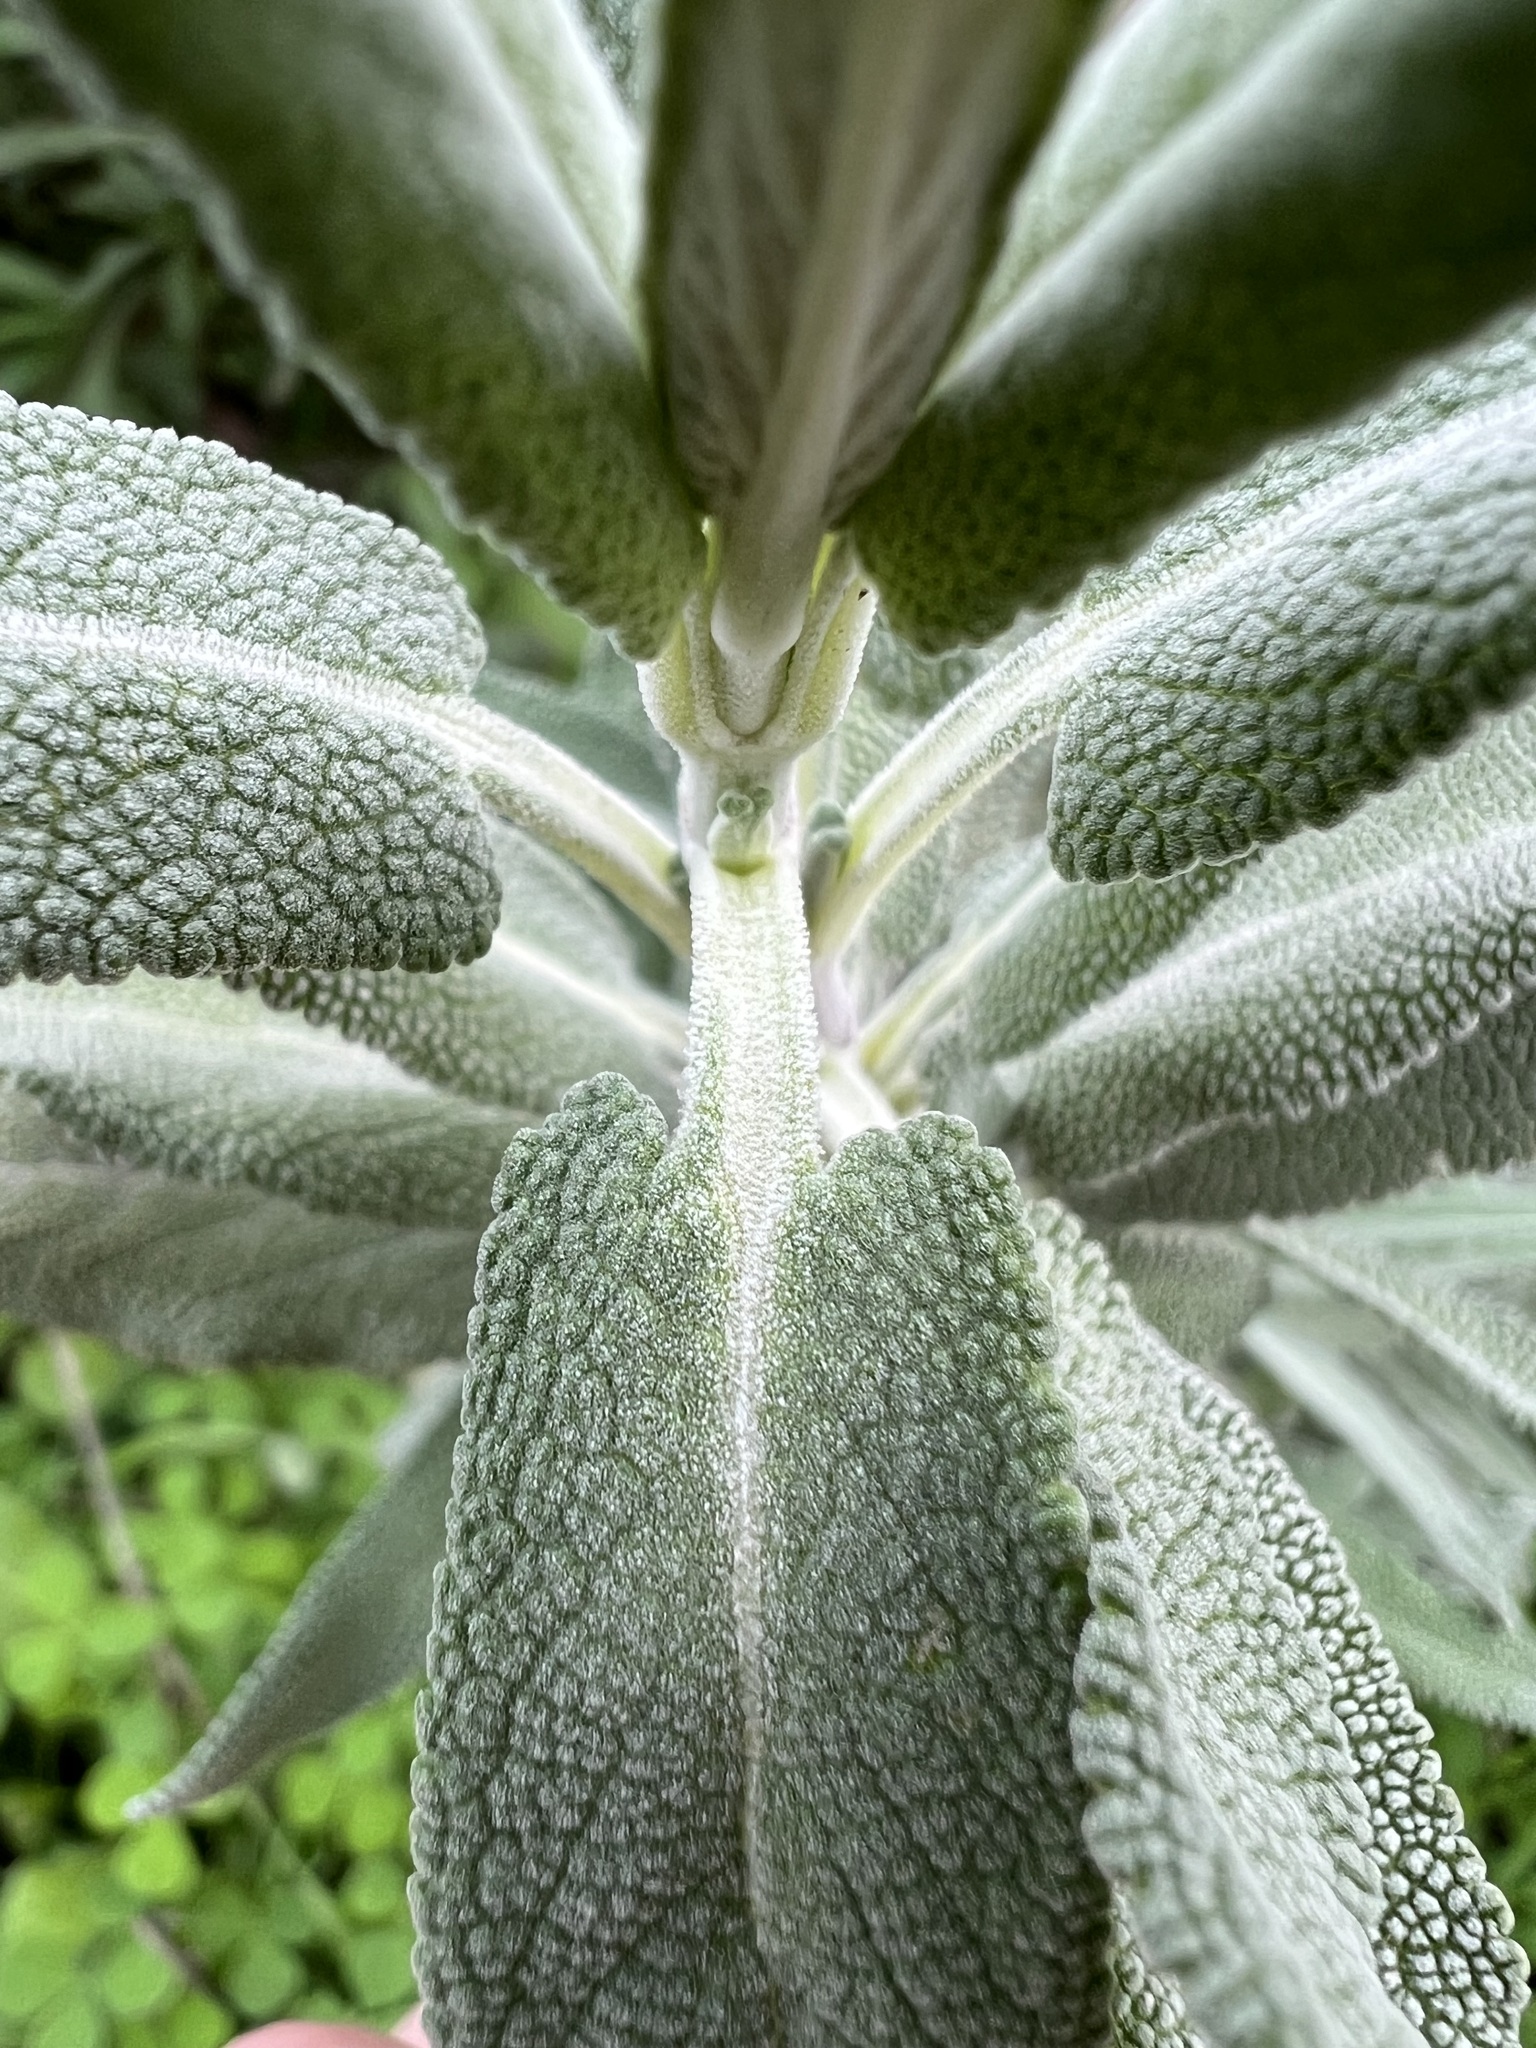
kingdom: Plantae
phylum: Tracheophyta
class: Magnoliopsida
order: Lamiales
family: Lamiaceae
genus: Salvia
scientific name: Salvia leucophylla
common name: Purple sage
